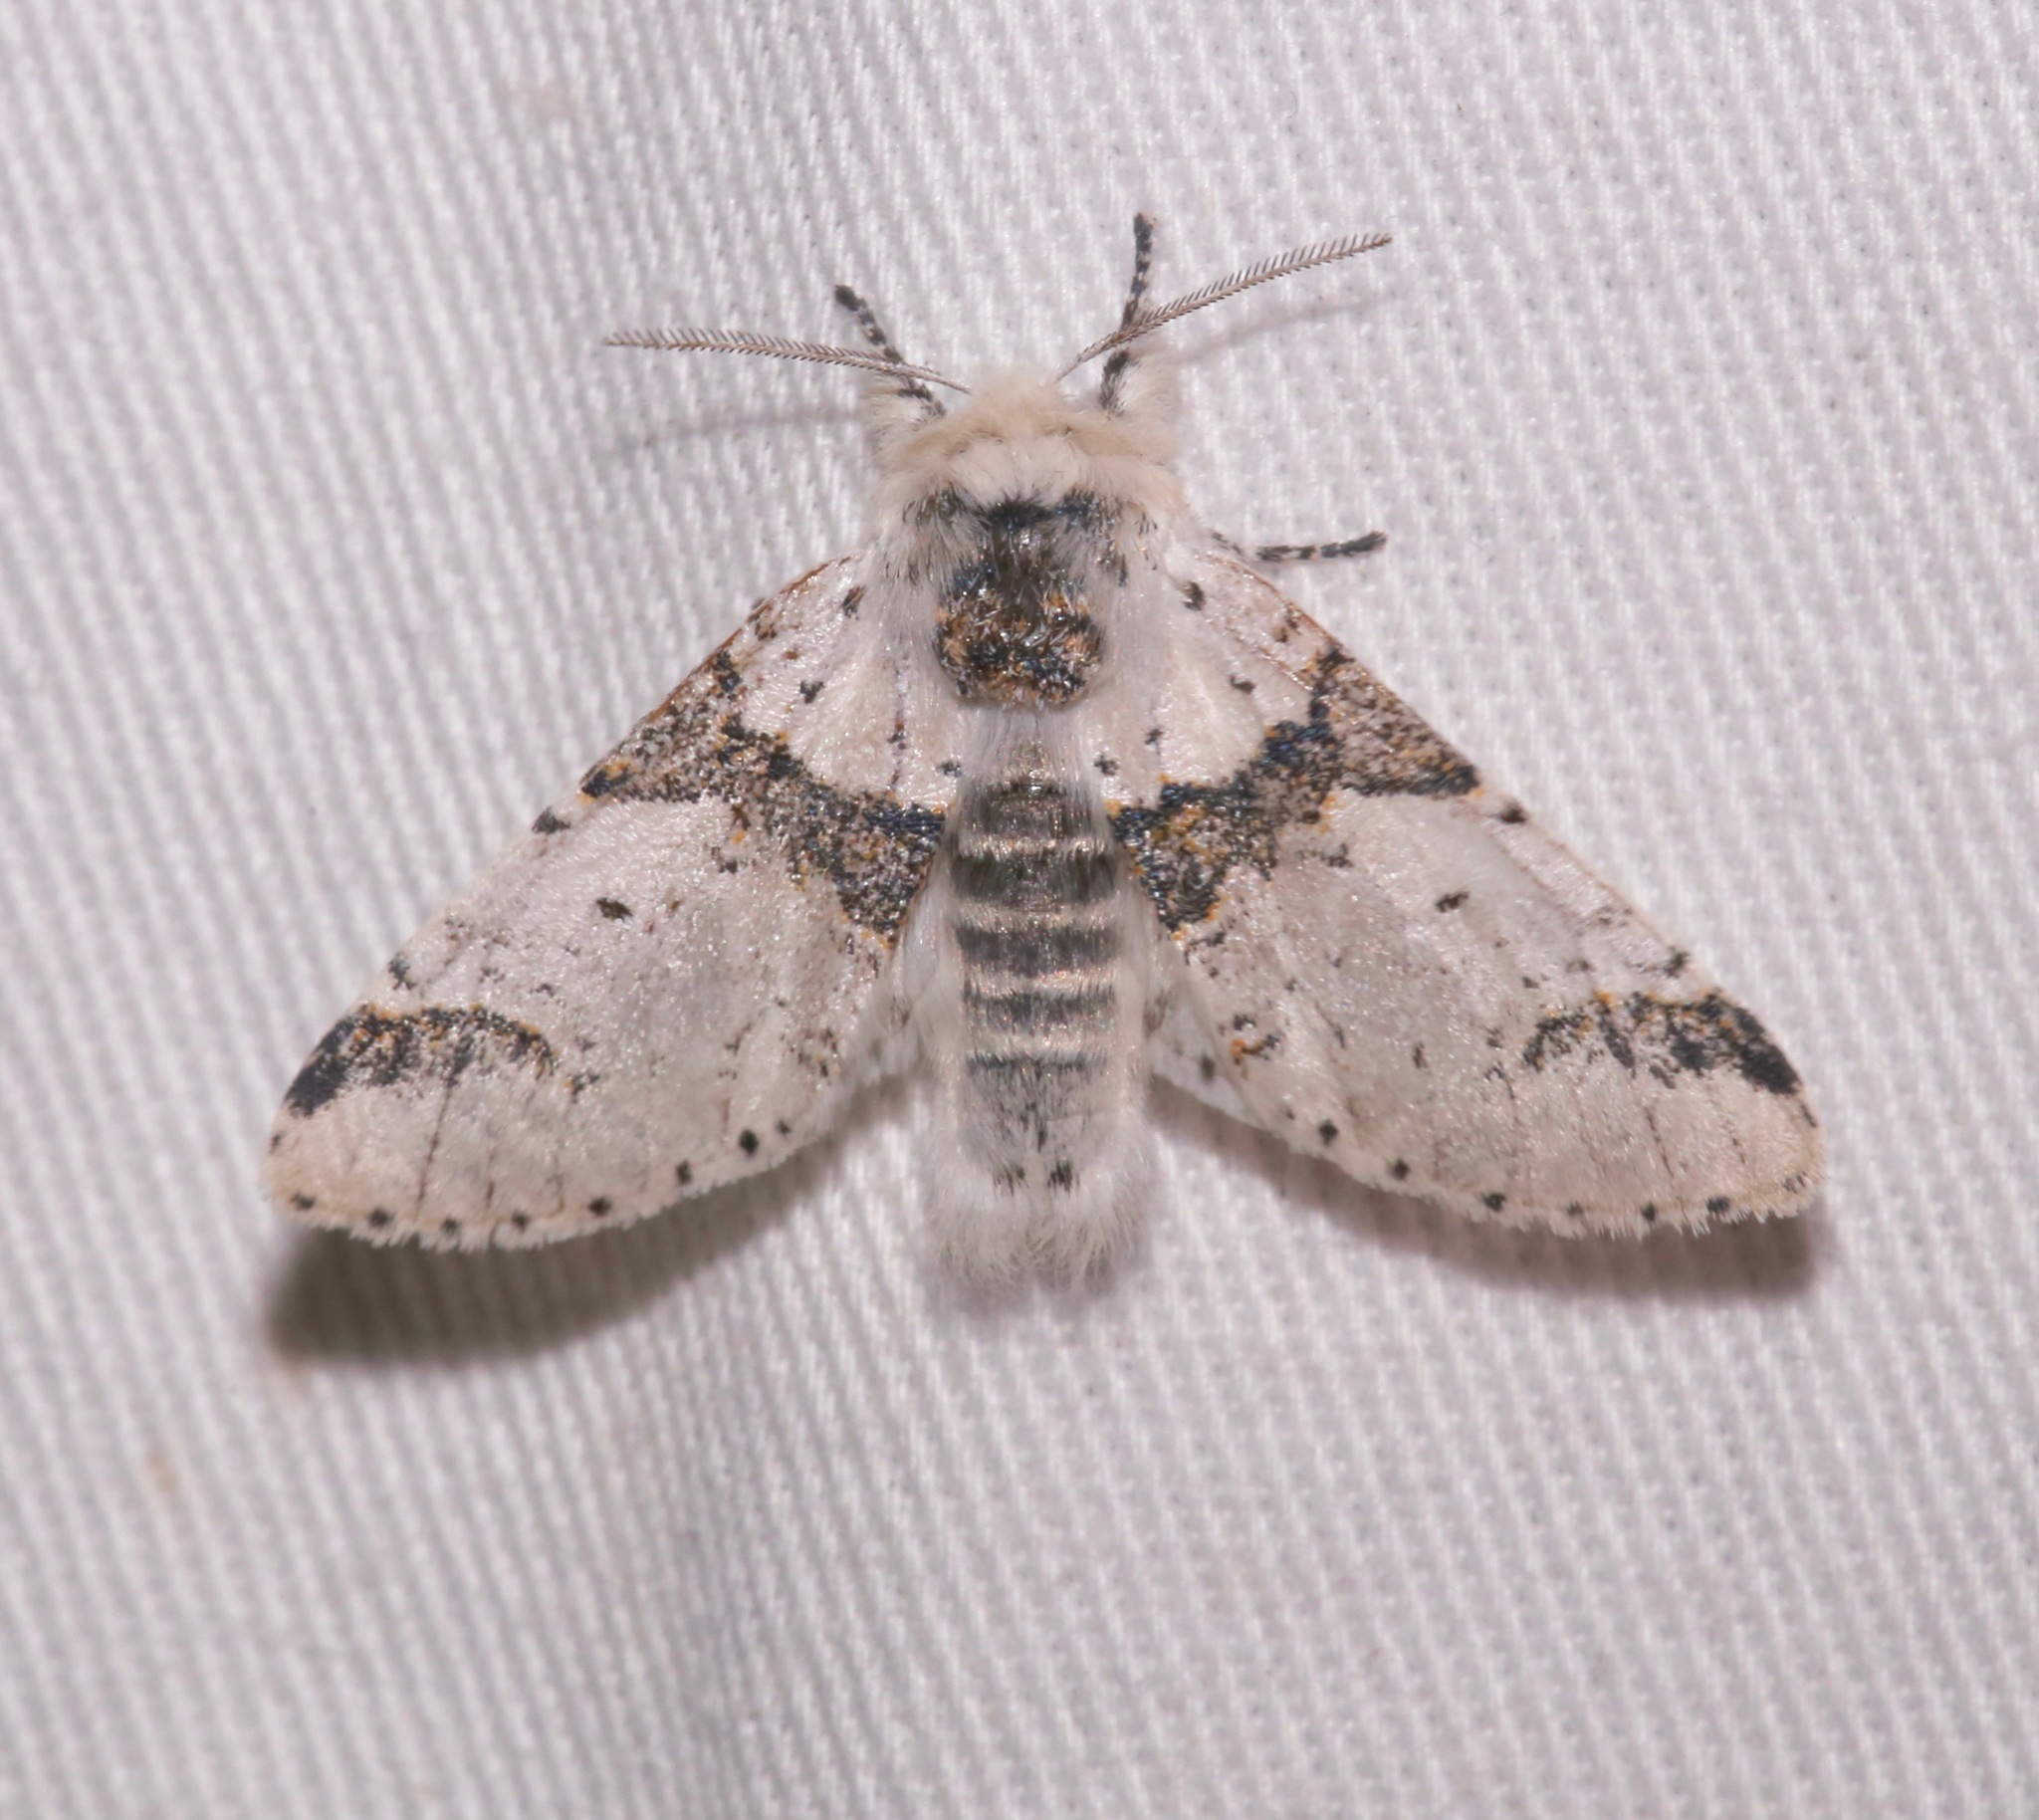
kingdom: Animalia
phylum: Arthropoda
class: Insecta
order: Lepidoptera
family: Notodontidae
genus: Furcula
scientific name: Furcula scolopendrina
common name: Zigzag furcula moth
